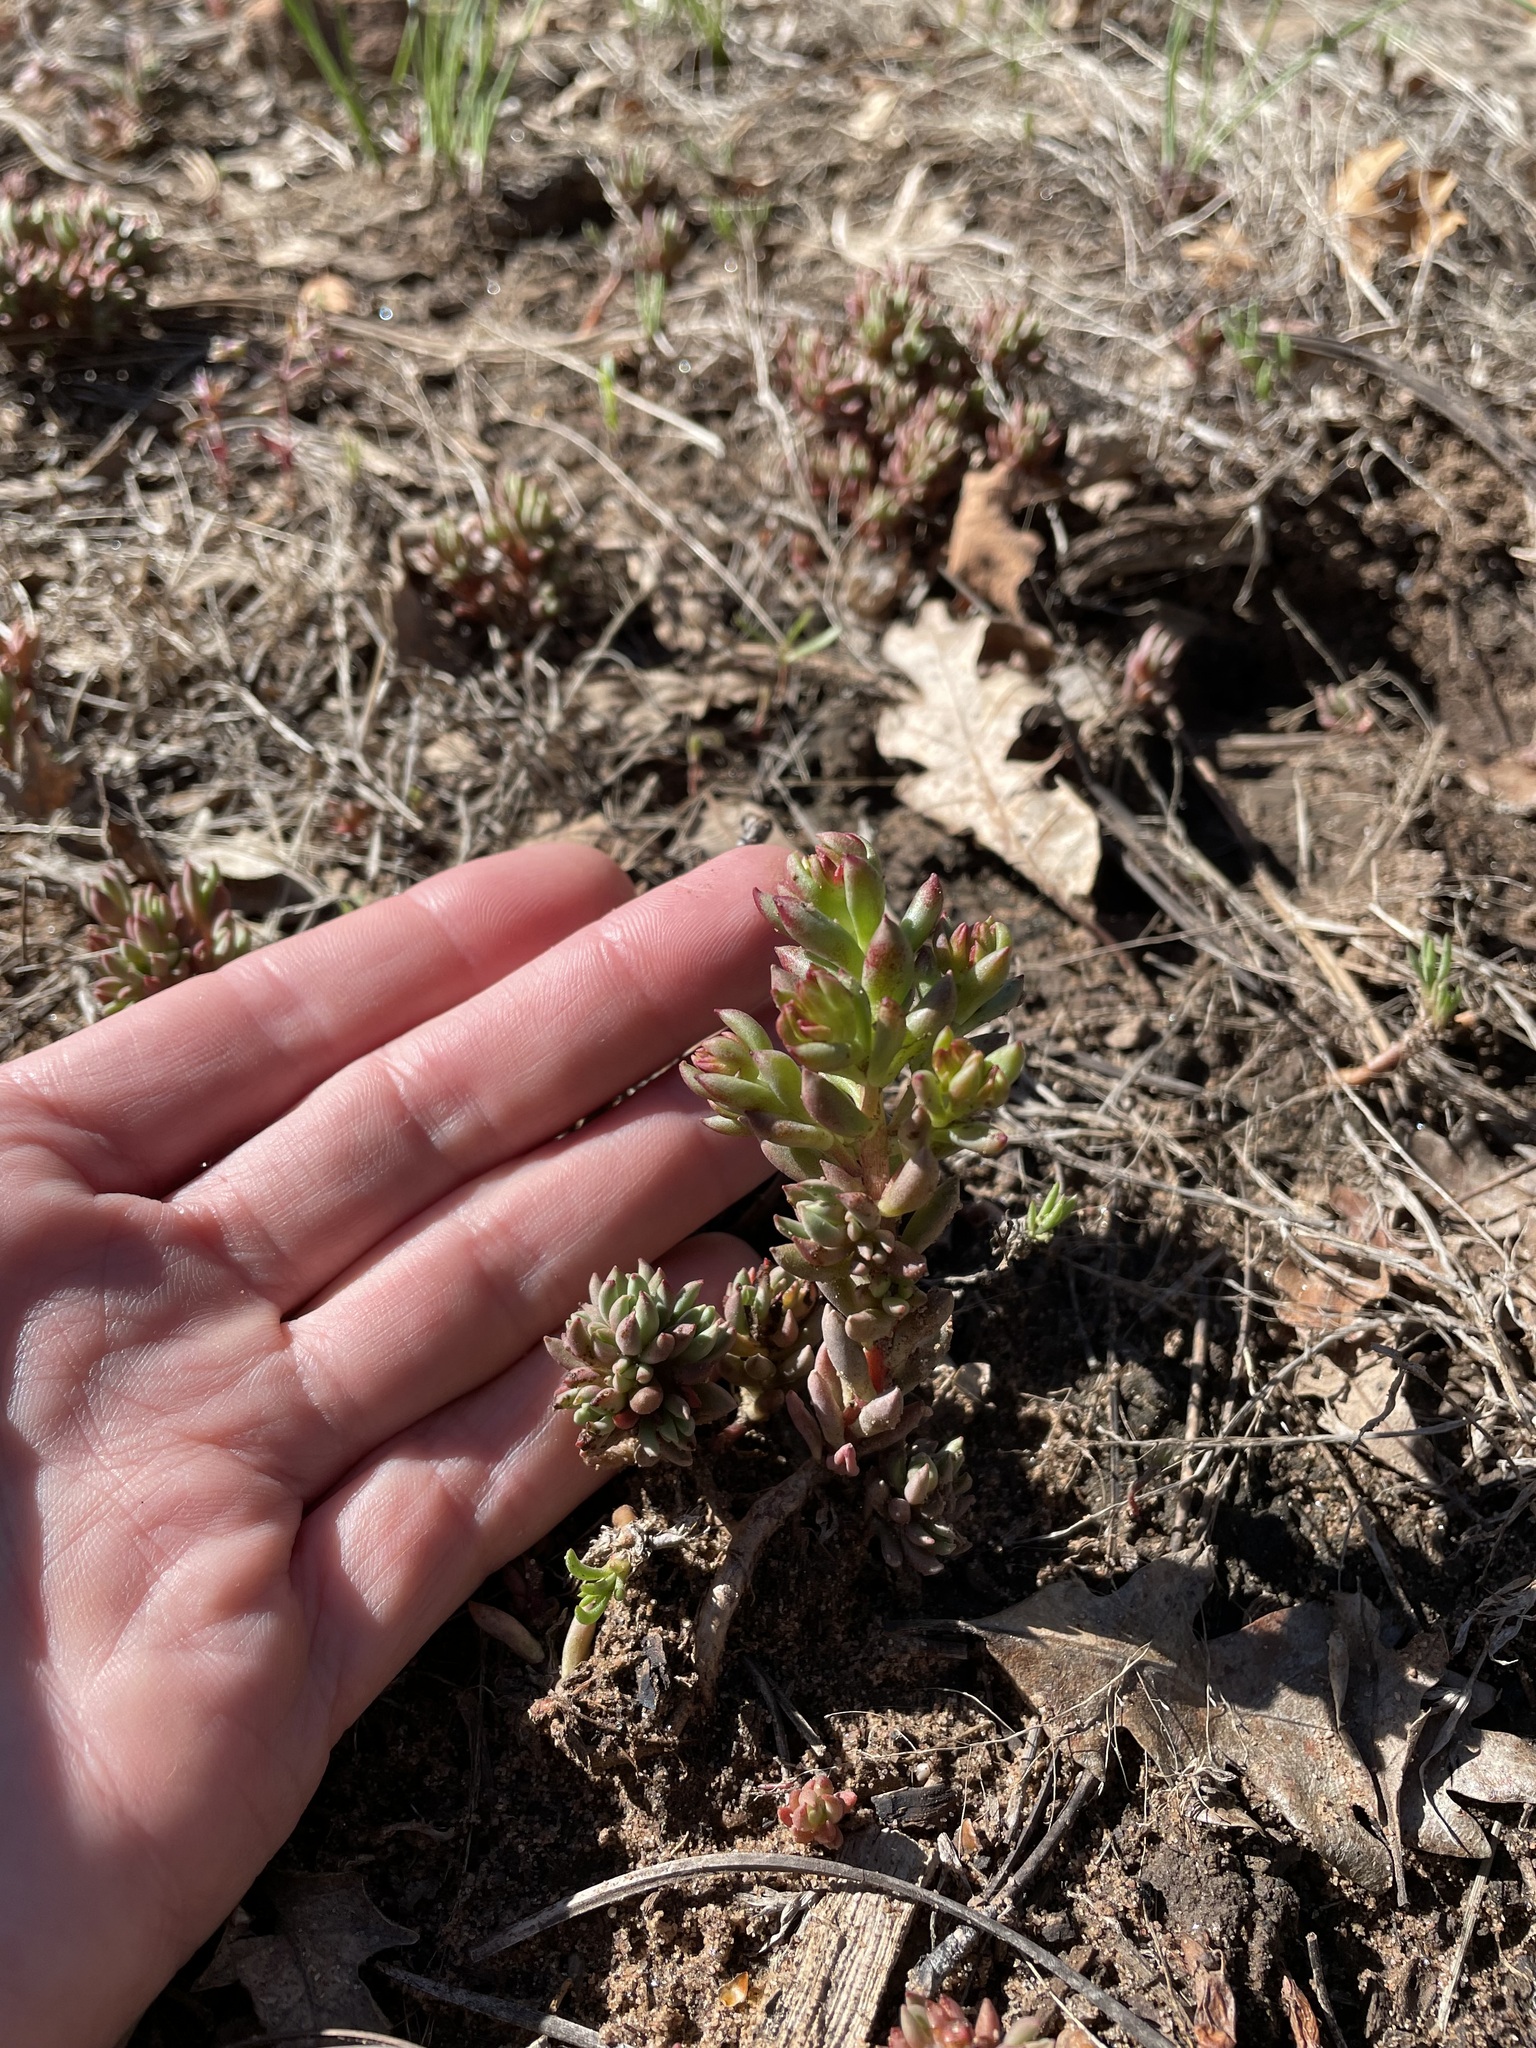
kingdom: Plantae
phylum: Tracheophyta
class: Magnoliopsida
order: Saxifragales
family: Crassulaceae
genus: Sedum
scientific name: Sedum lanceolatum
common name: Common stonecrop
